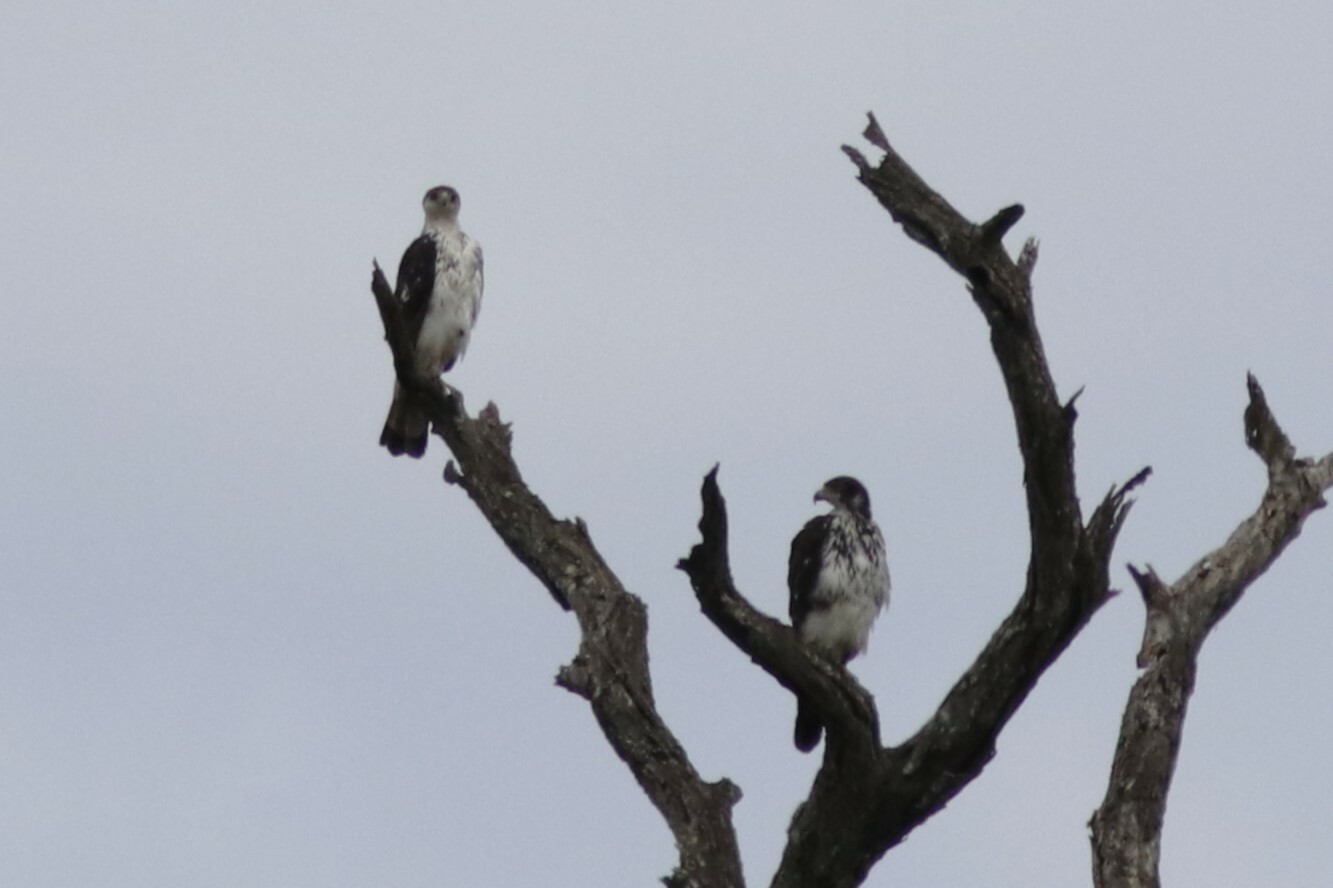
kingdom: Animalia
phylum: Chordata
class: Aves
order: Accipitriformes
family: Accipitridae
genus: Aquila
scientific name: Aquila spilogaster
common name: African hawk-eagle
